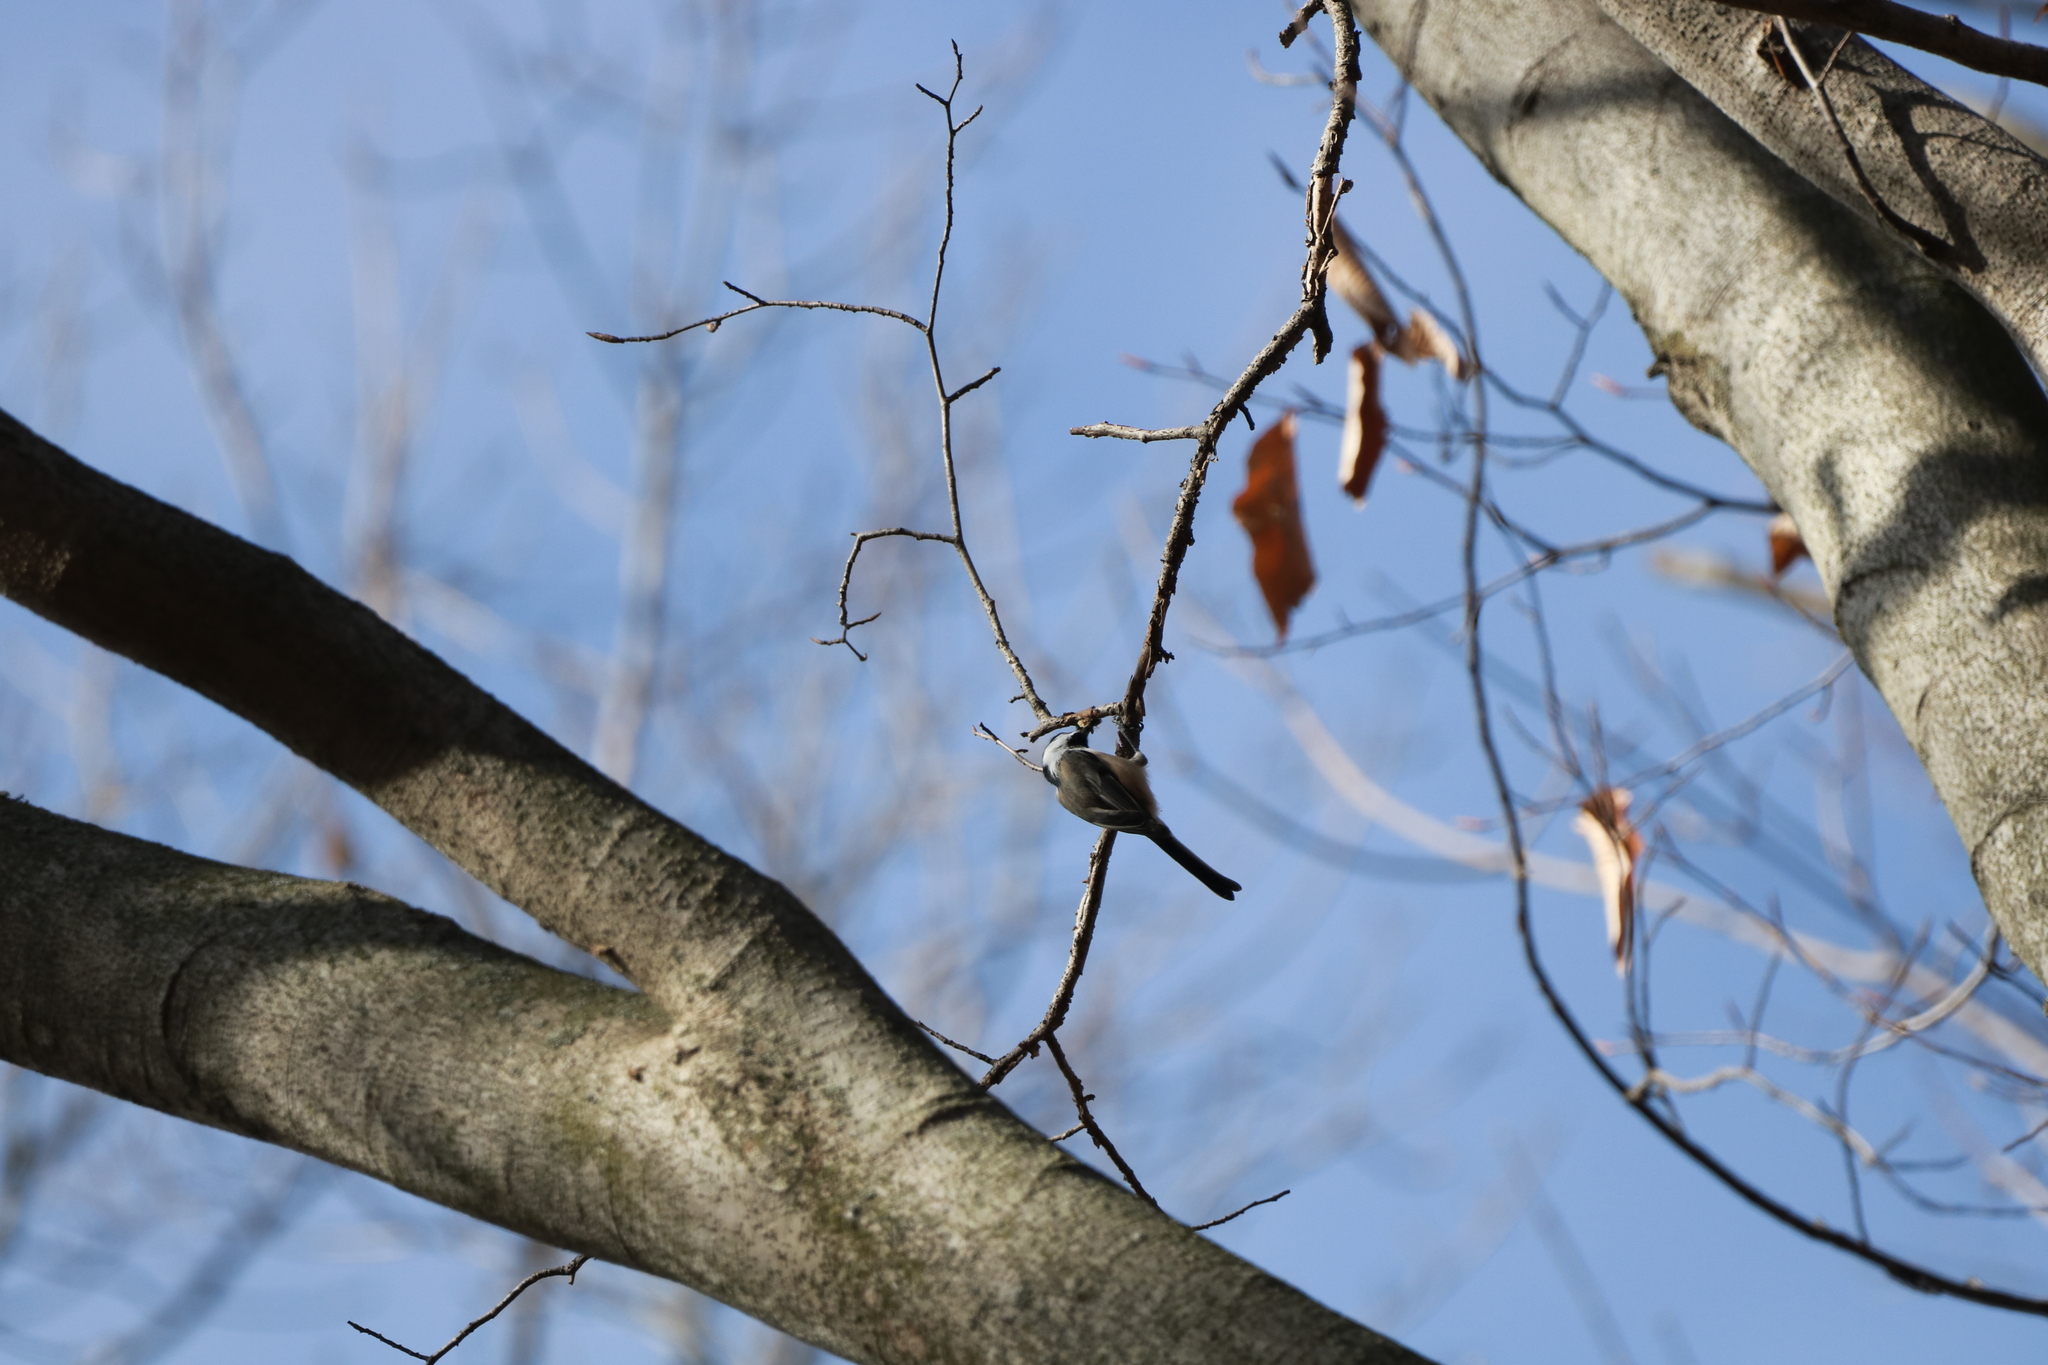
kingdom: Animalia
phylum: Chordata
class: Aves
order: Passeriformes
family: Paridae
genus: Poecile
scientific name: Poecile atricapillus
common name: Black-capped chickadee
